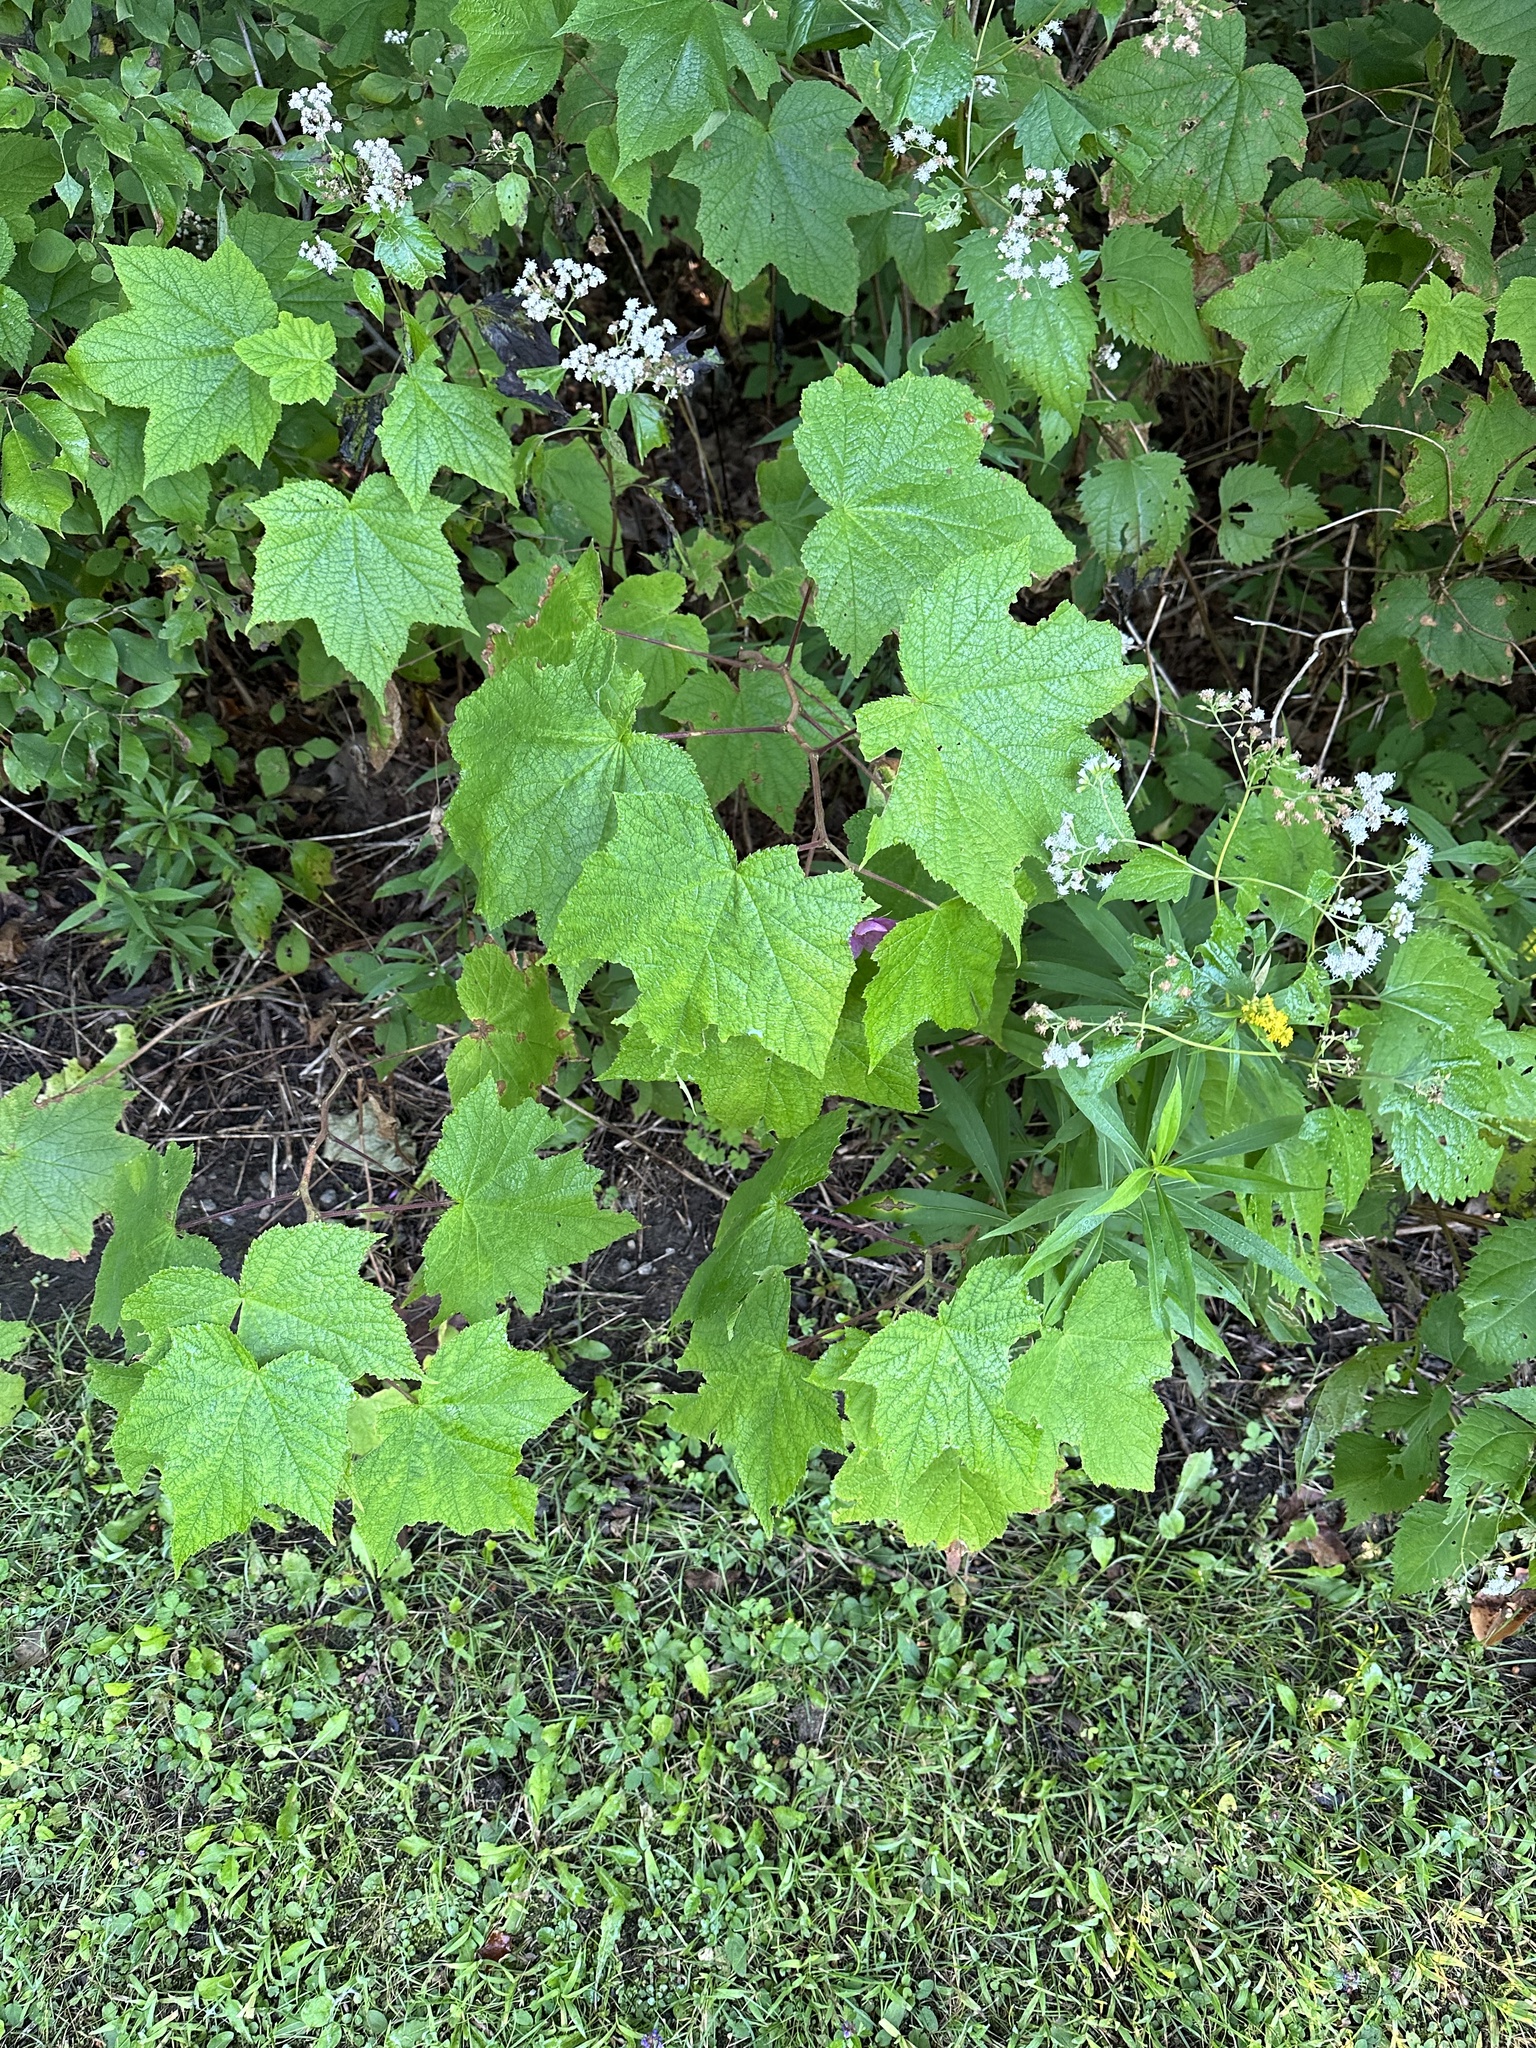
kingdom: Plantae
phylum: Tracheophyta
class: Magnoliopsida
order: Rosales
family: Rosaceae
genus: Rubus
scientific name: Rubus odoratus
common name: Purple-flowered raspberry
